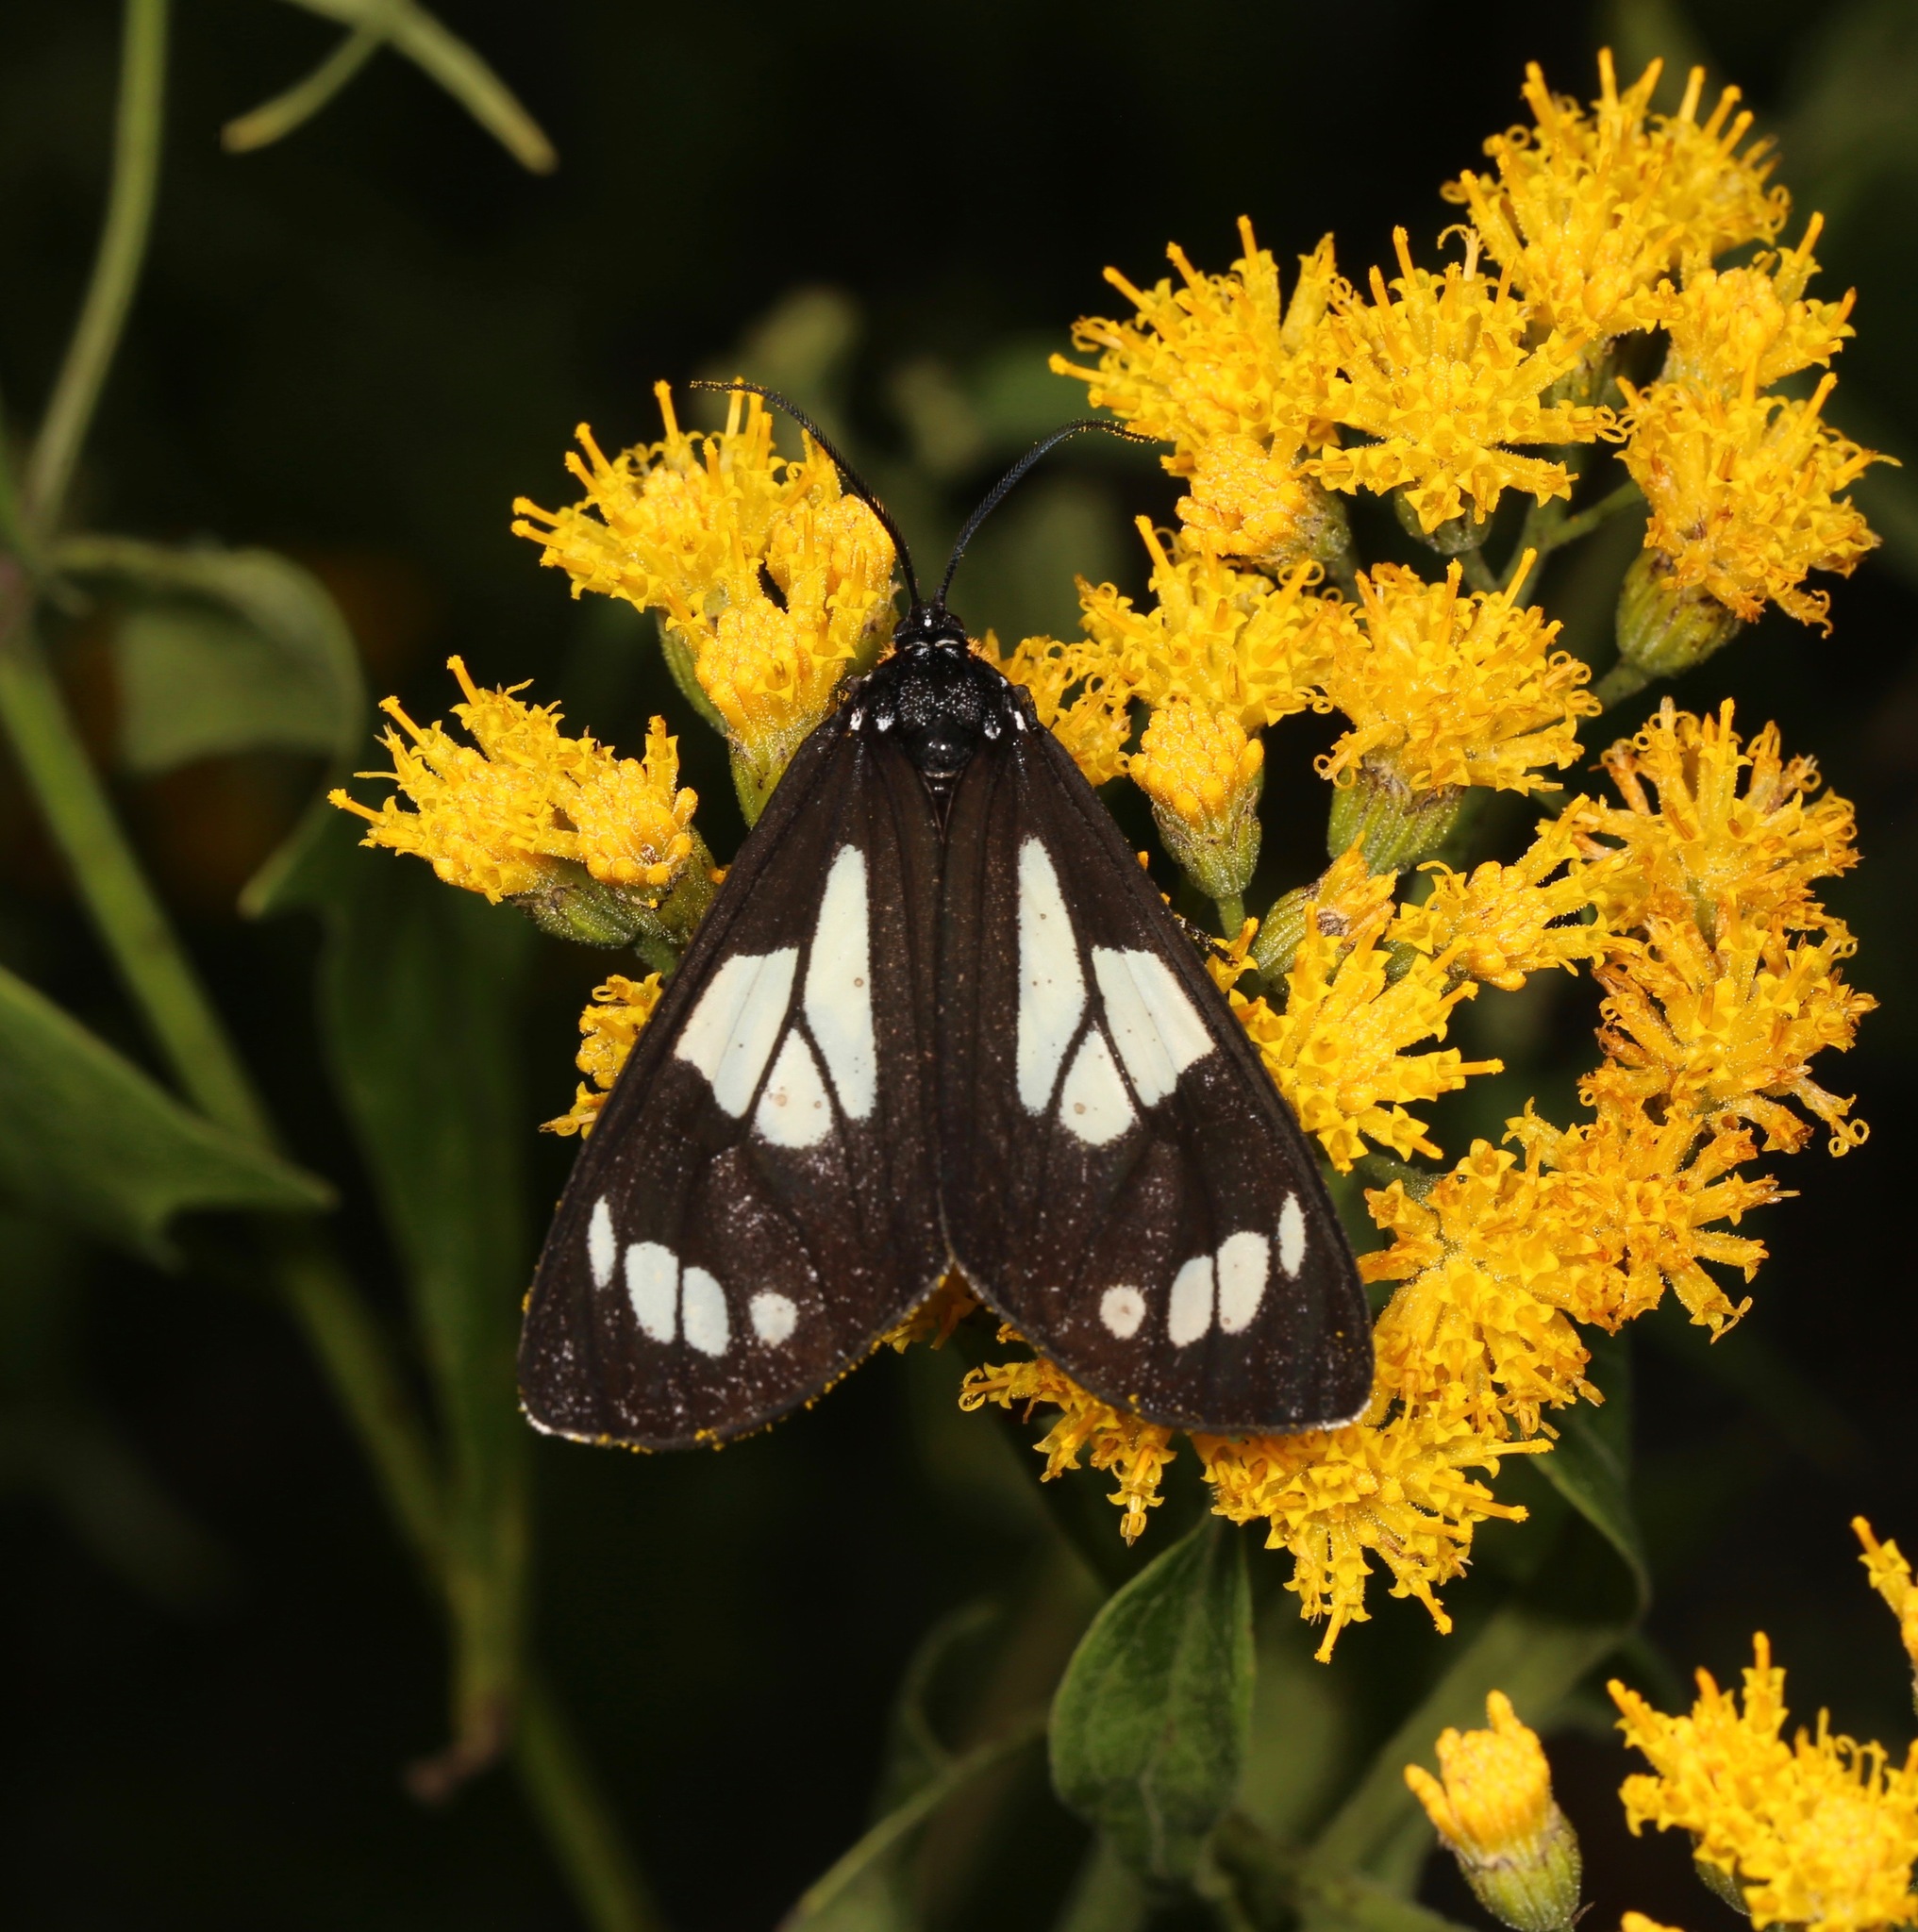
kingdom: Animalia
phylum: Arthropoda
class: Insecta
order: Lepidoptera
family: Erebidae
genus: Gnophaela
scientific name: Gnophaela discreta
